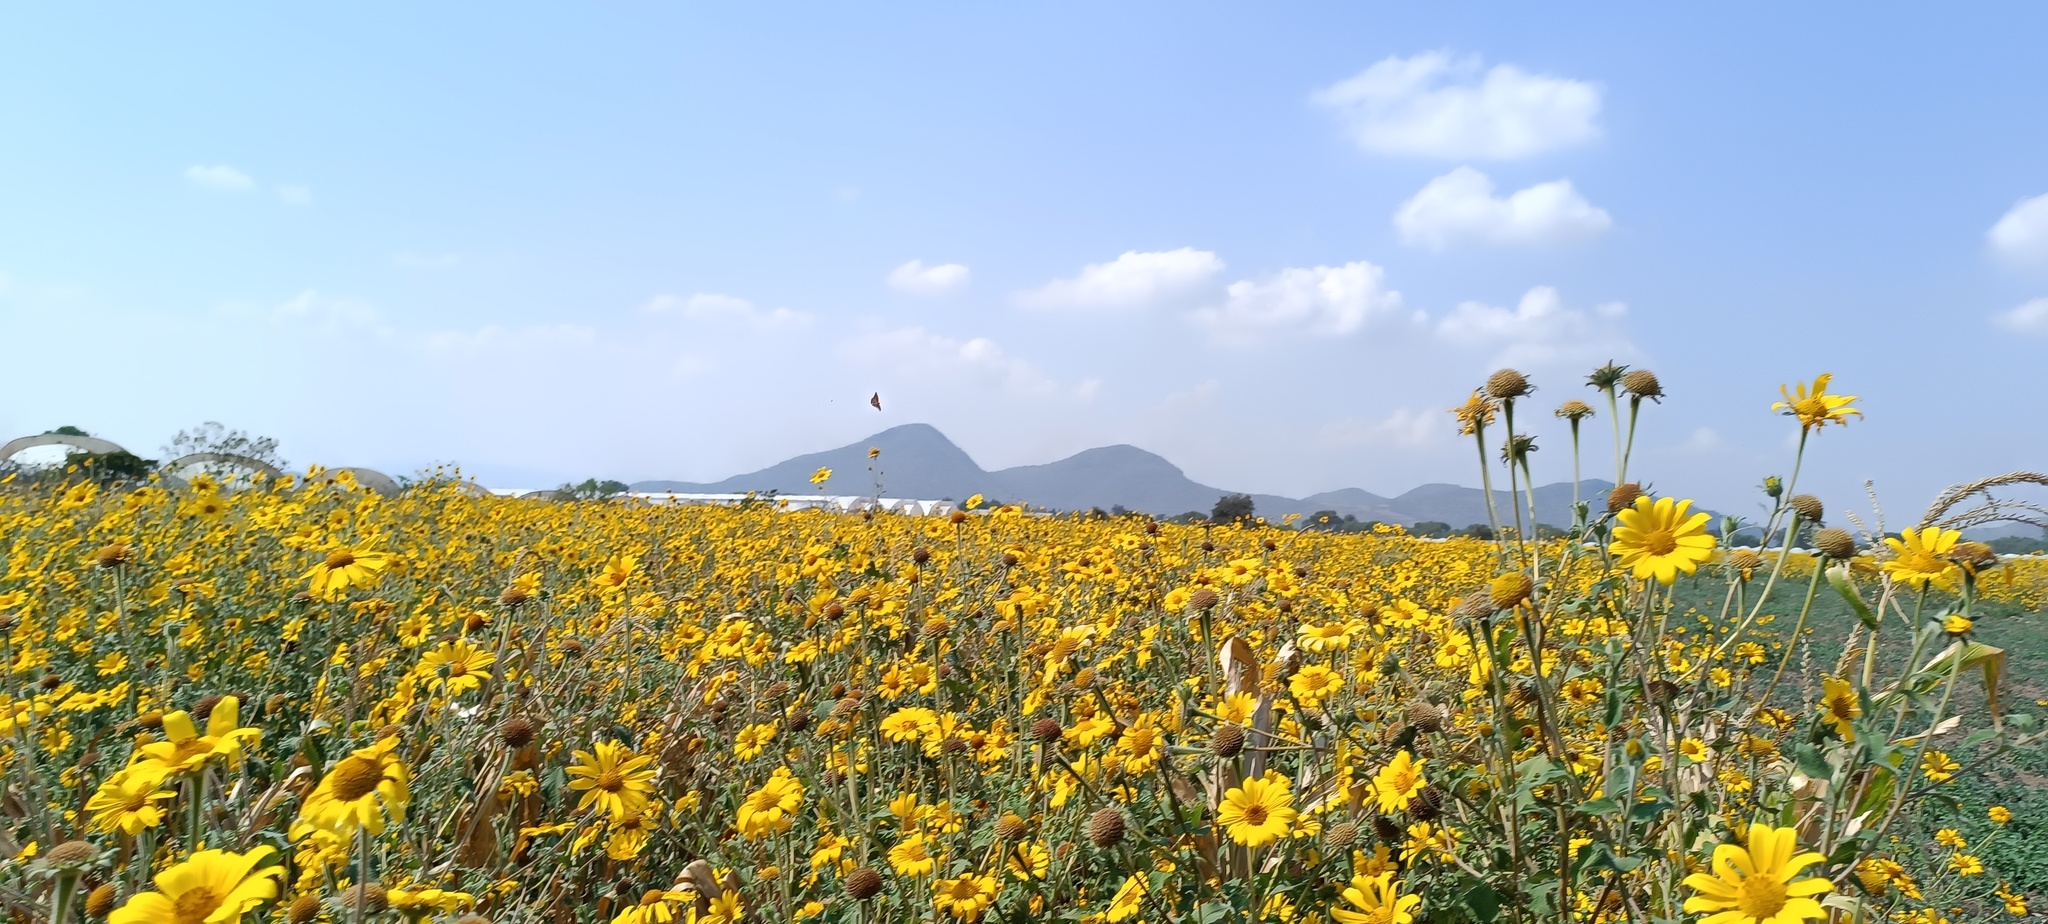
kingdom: Plantae
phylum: Tracheophyta
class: Magnoliopsida
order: Asterales
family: Asteraceae
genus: Tithonia
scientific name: Tithonia tubaeformis
